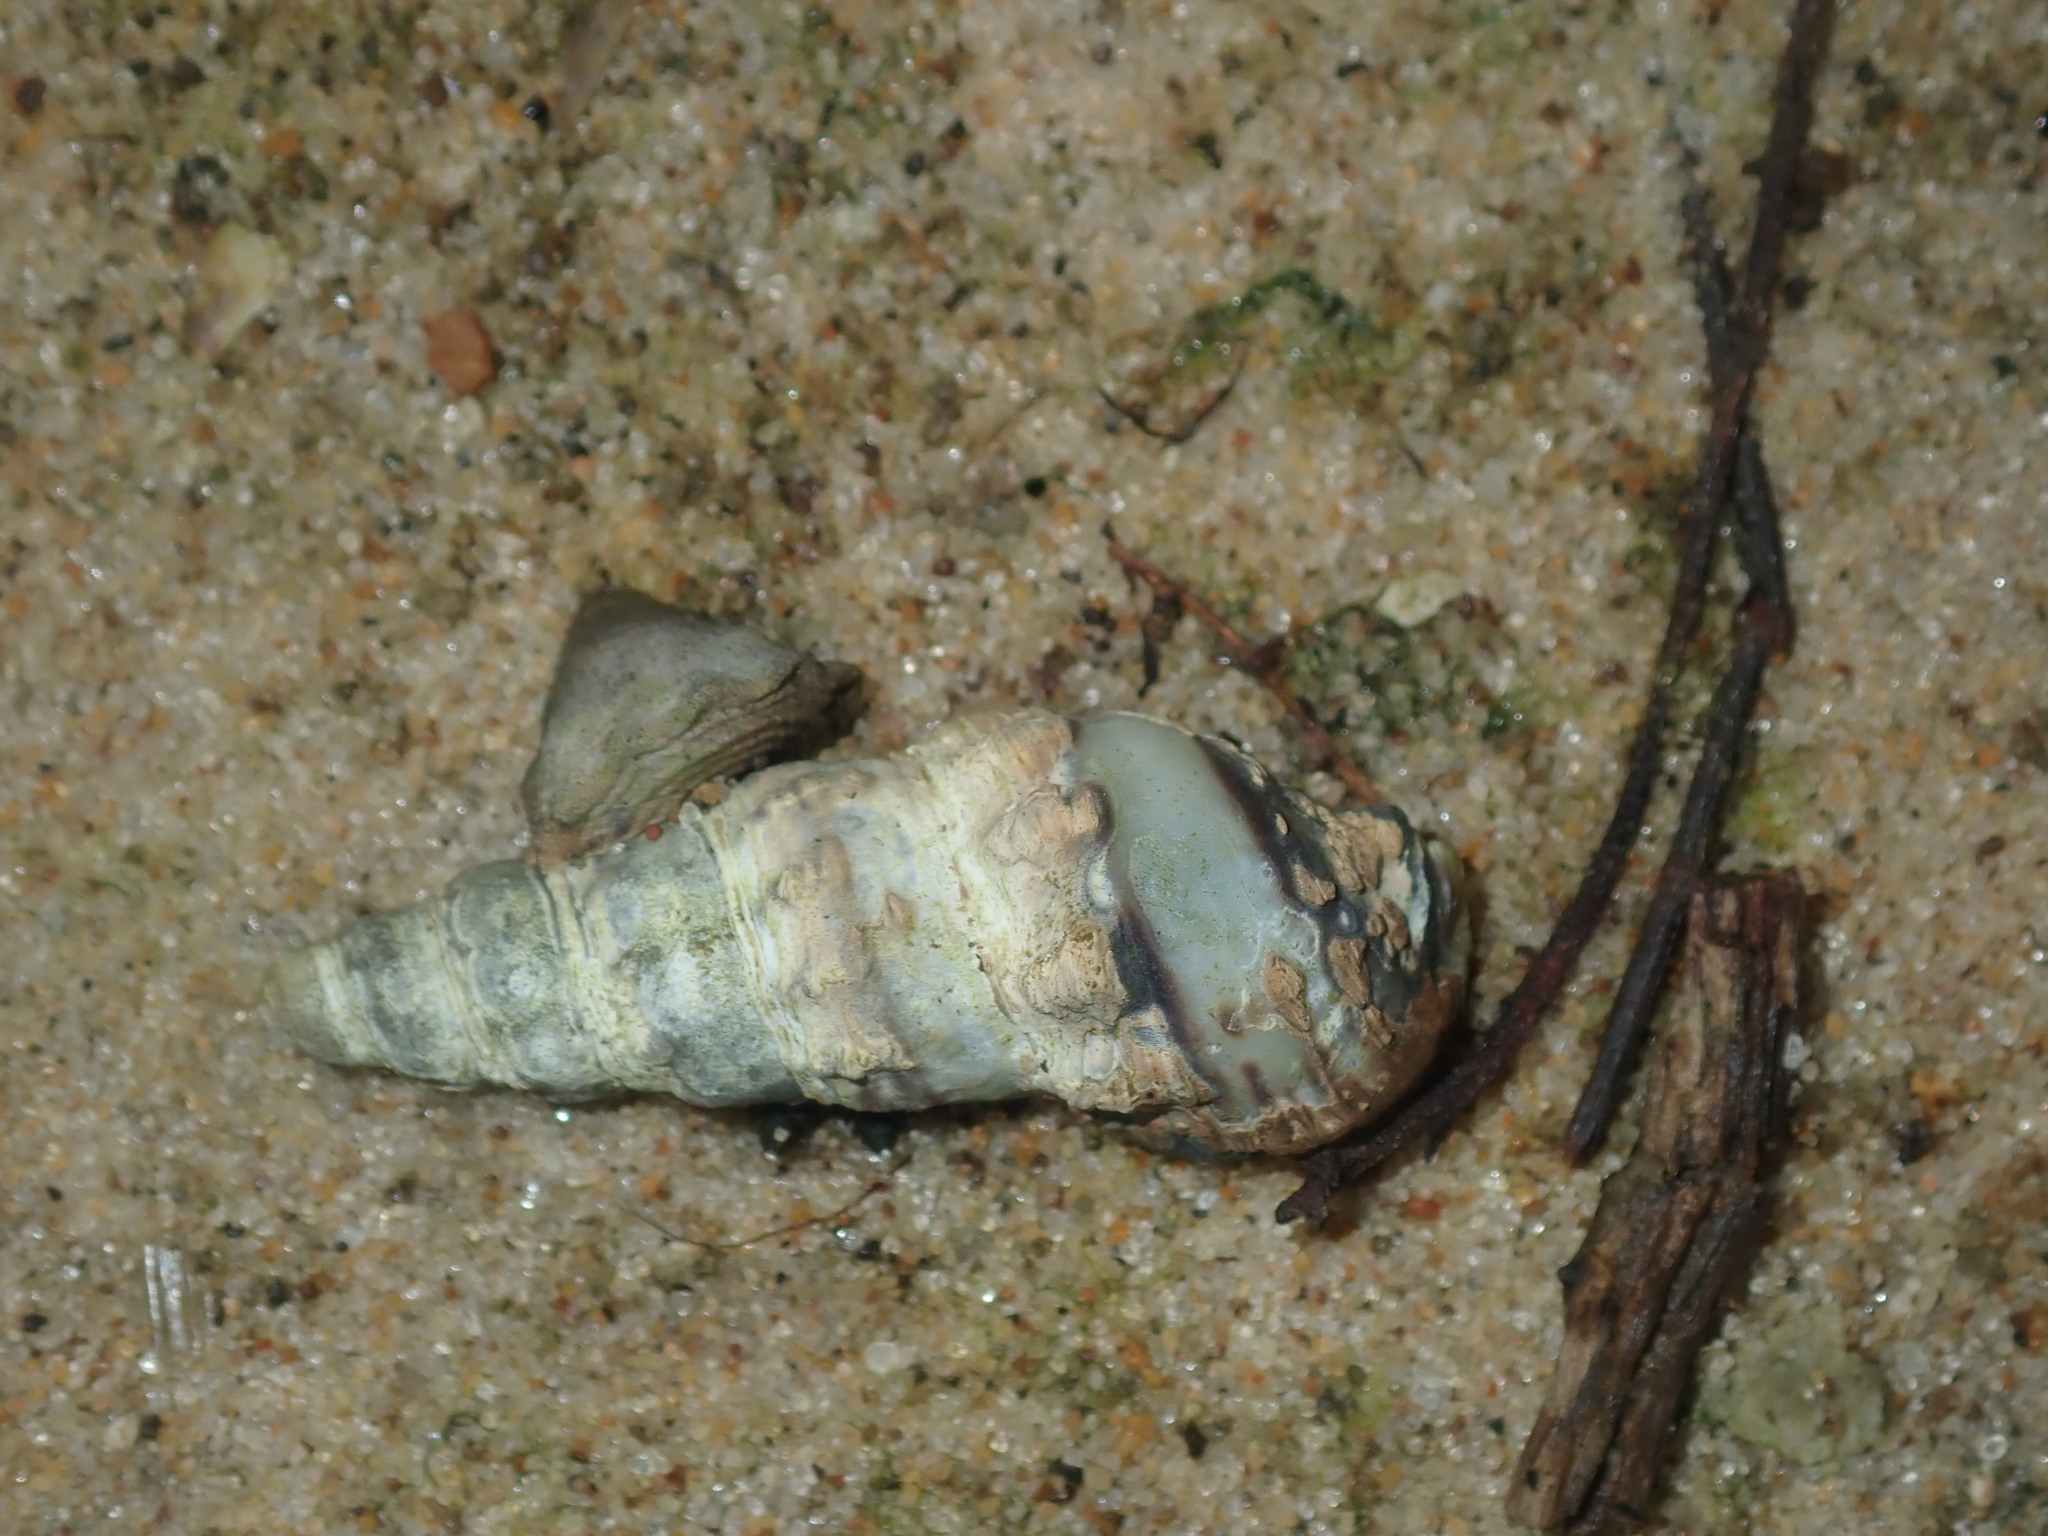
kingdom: Animalia
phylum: Mollusca
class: Gastropoda
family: Batillariidae
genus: Batillaria
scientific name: Batillaria australis
